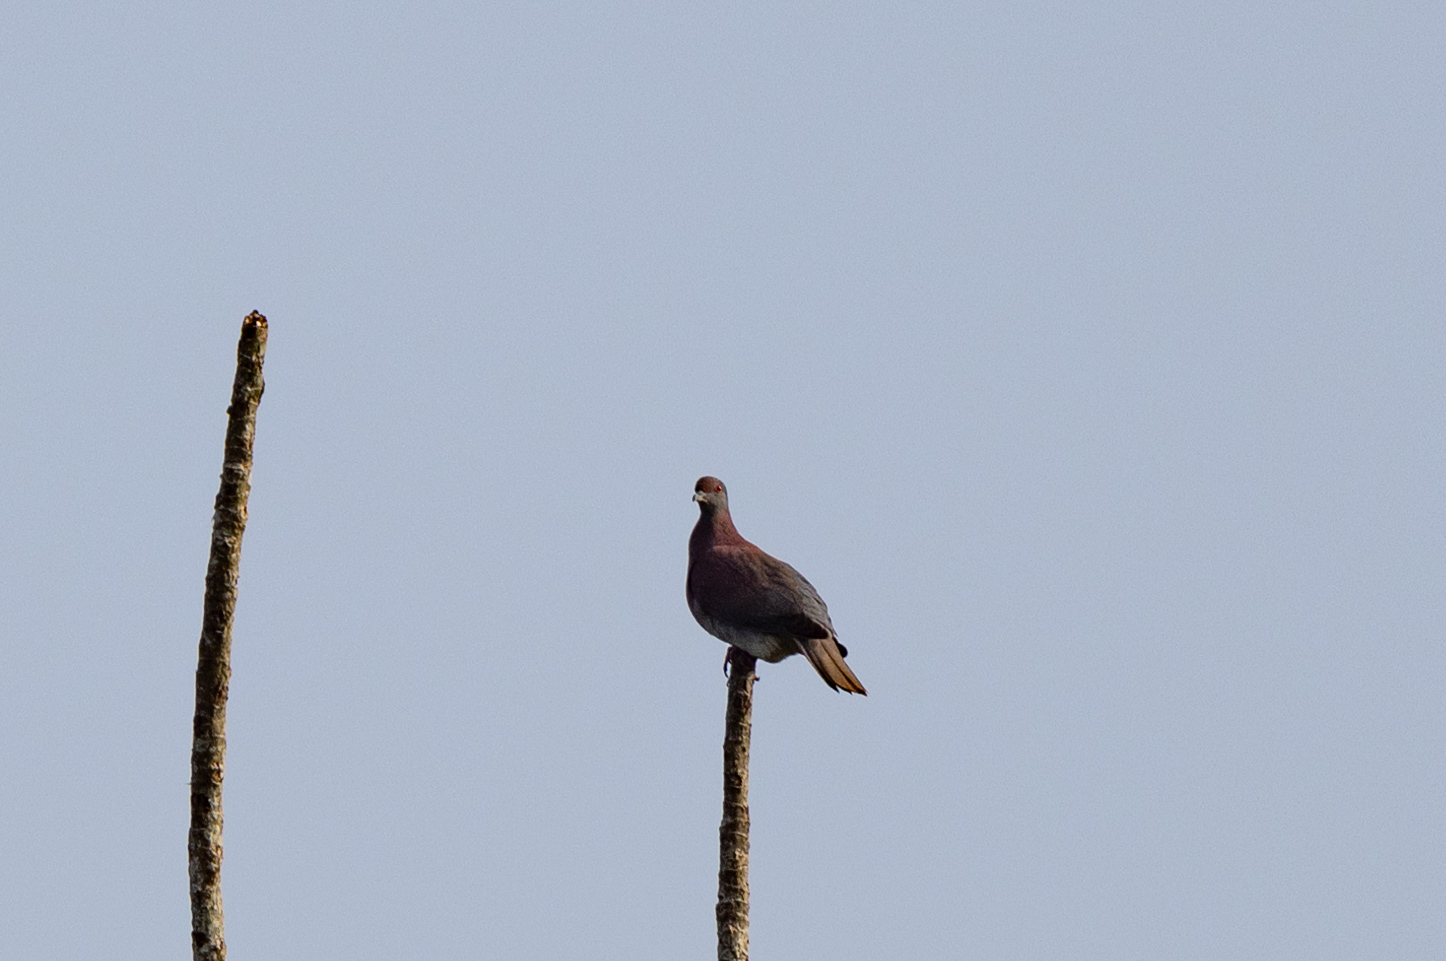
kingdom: Animalia
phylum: Chordata
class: Aves
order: Columbiformes
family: Columbidae
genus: Patagioenas
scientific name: Patagioenas cayennensis
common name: Pale-vented pigeon
